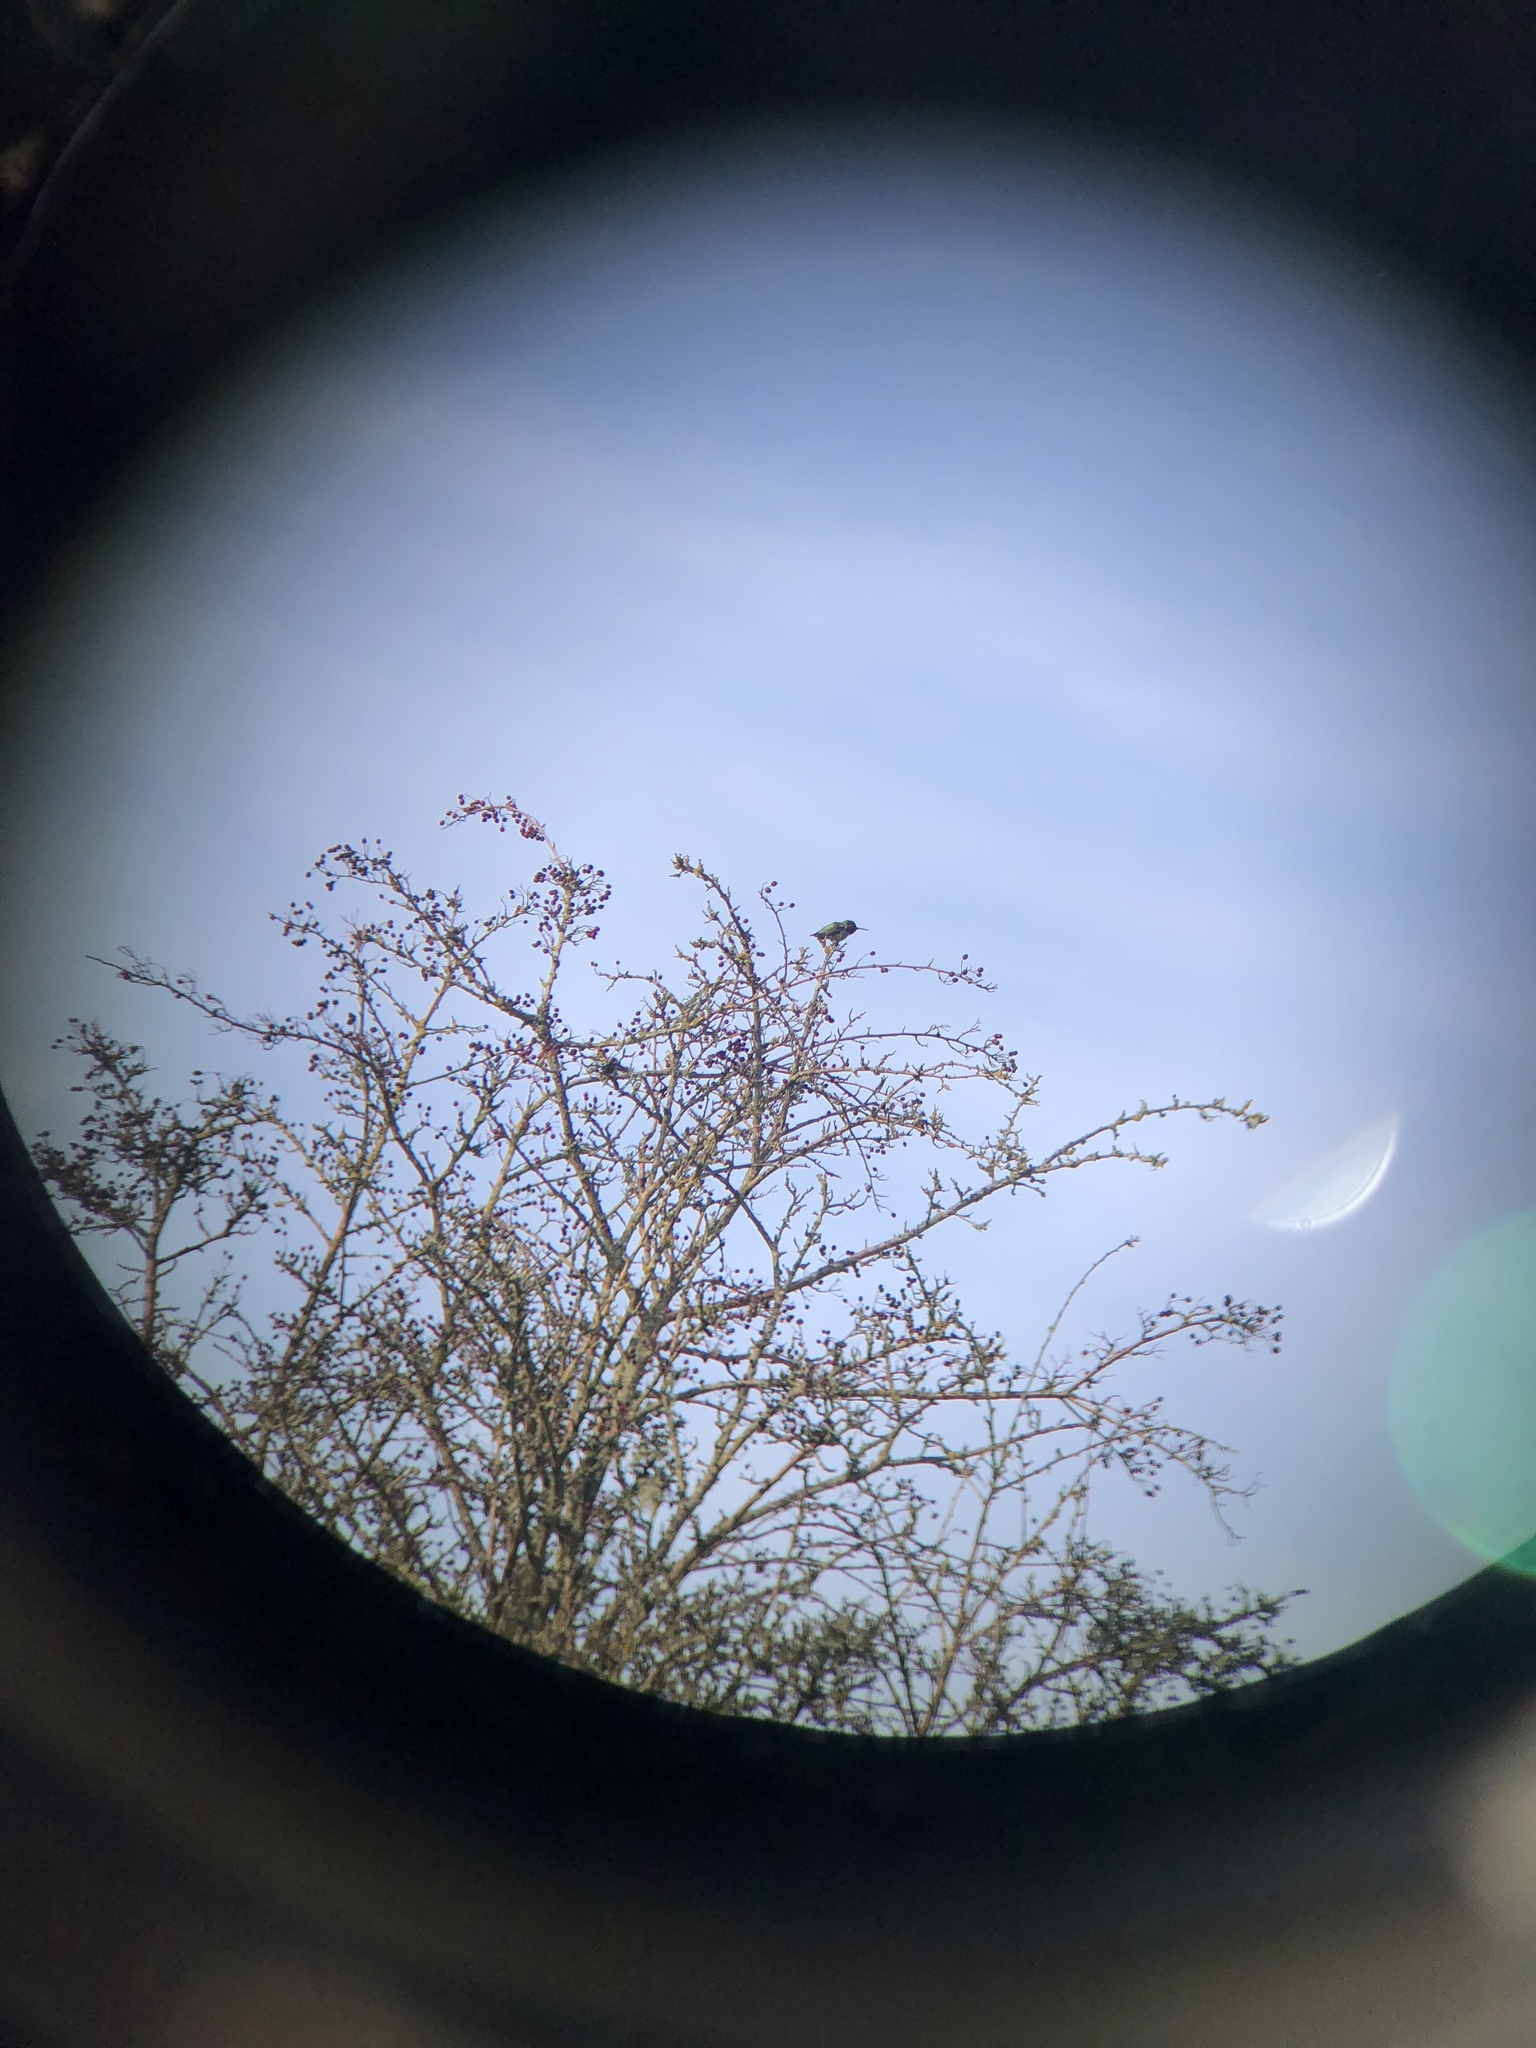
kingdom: Animalia
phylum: Chordata
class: Aves
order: Apodiformes
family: Trochilidae
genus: Calypte
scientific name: Calypte anna
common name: Anna's hummingbird
